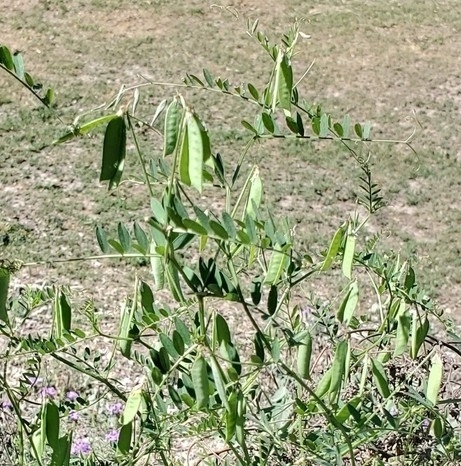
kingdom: Plantae
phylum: Tracheophyta
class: Magnoliopsida
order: Fabales
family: Fabaceae
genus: Vicia
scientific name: Vicia ludoviciana
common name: Louisiana vetch
